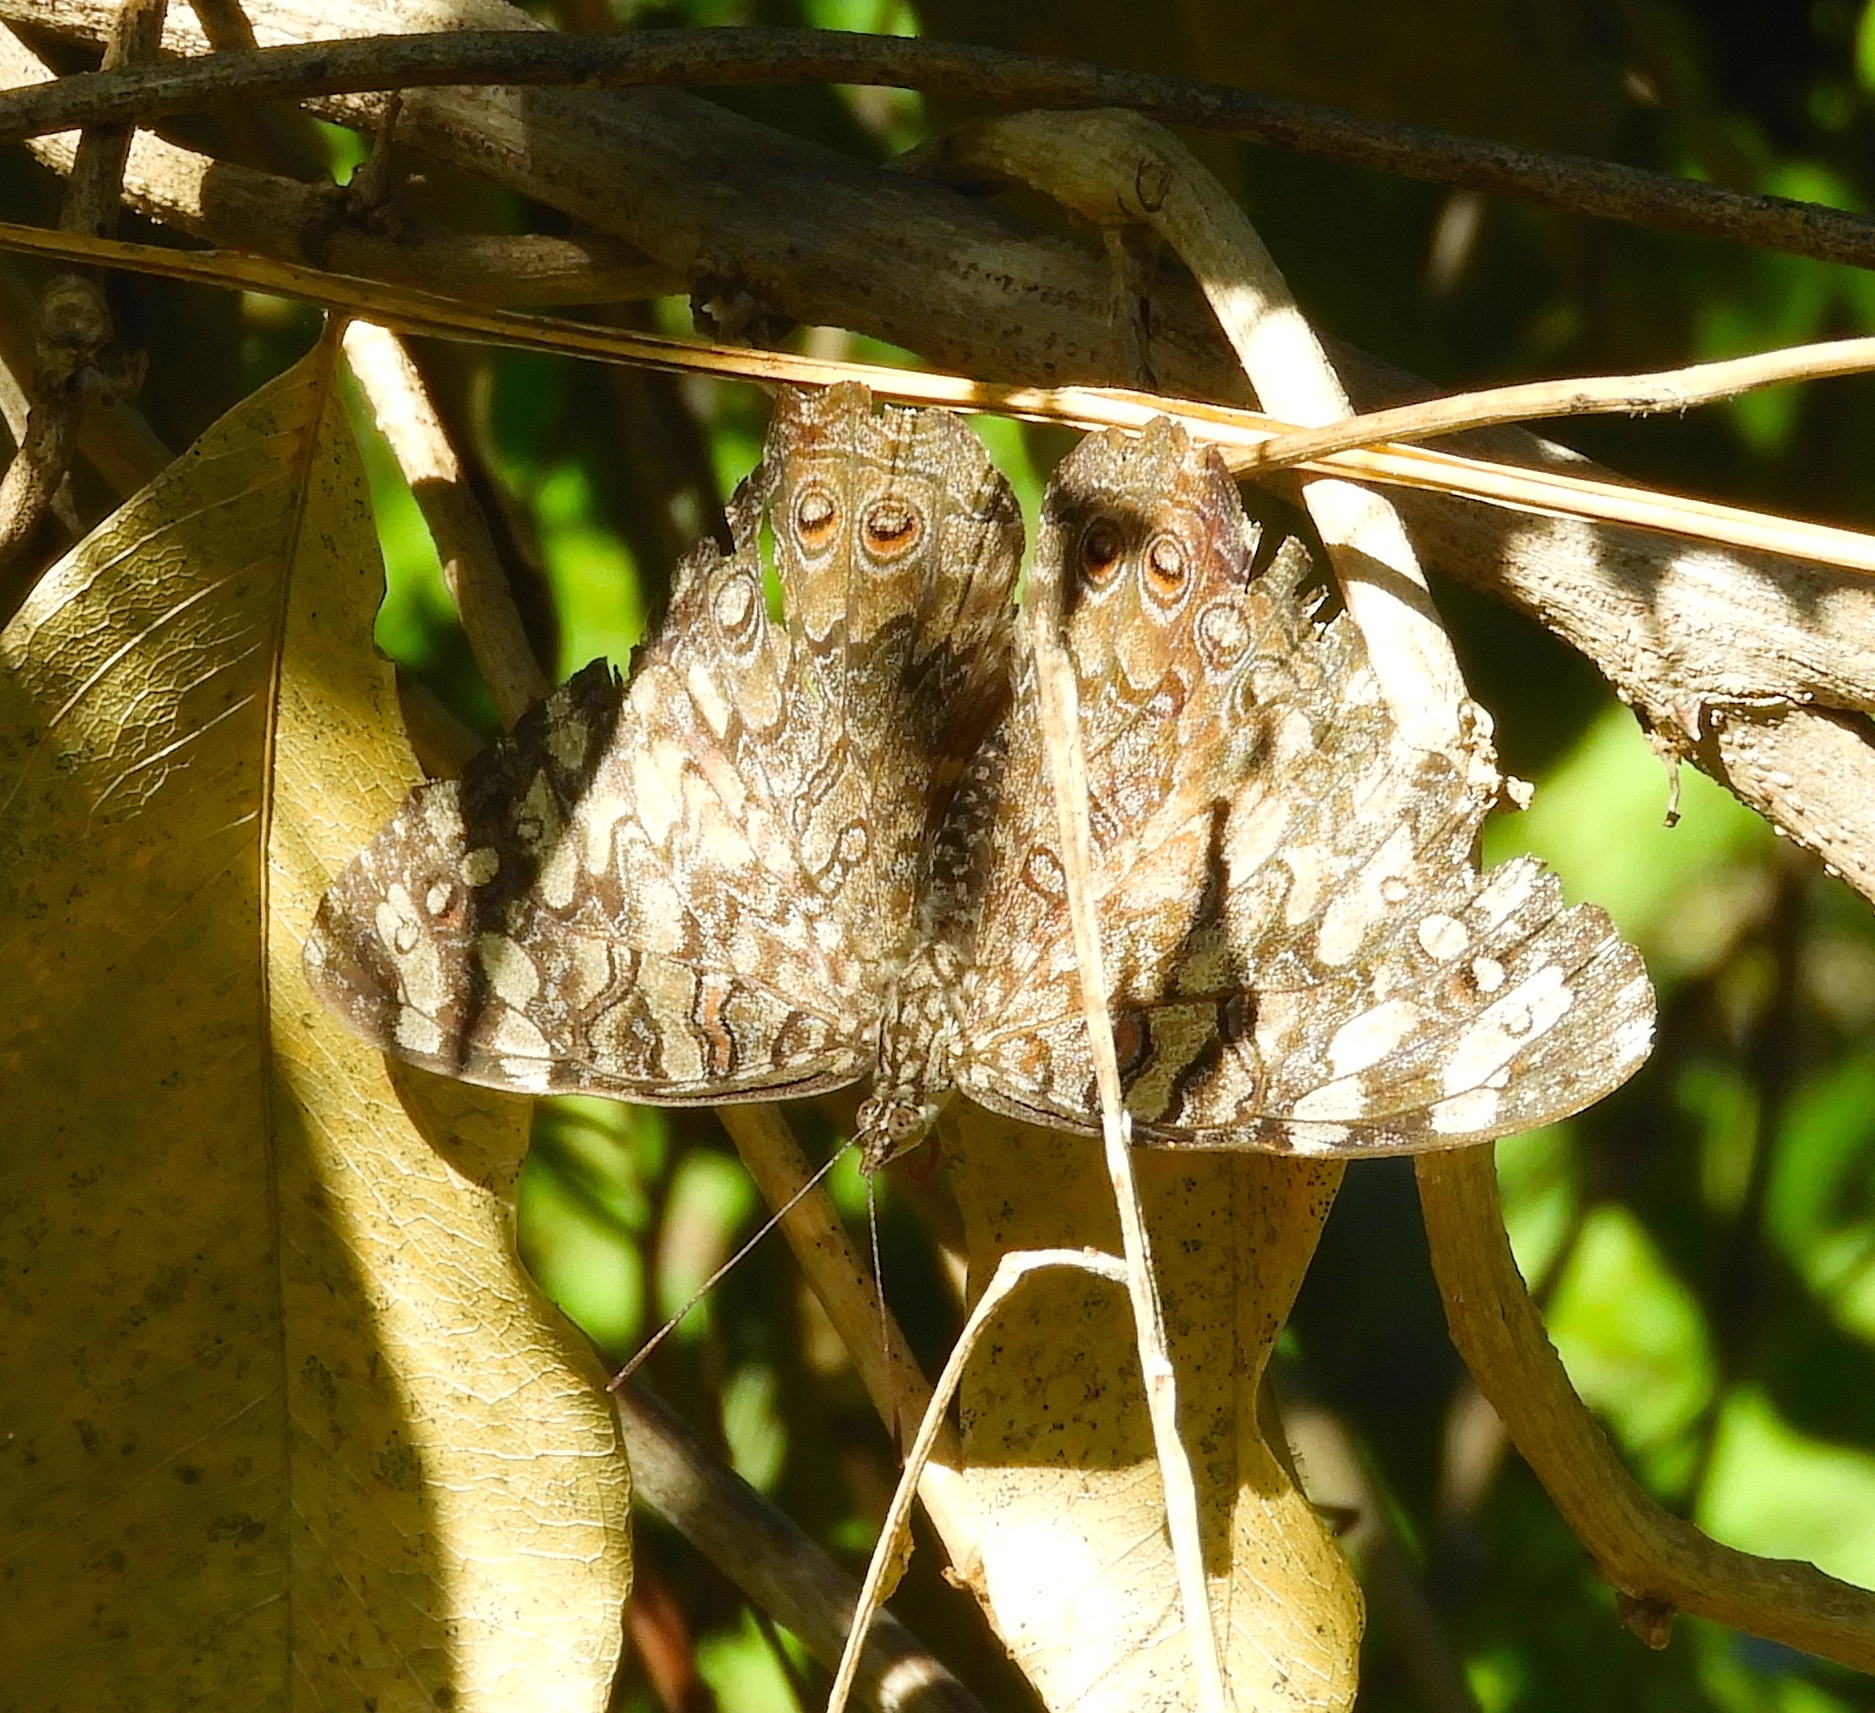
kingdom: Animalia
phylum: Arthropoda
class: Insecta
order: Lepidoptera
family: Nymphalidae
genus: Hamadryas
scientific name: Hamadryas februa
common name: Gray cracker
